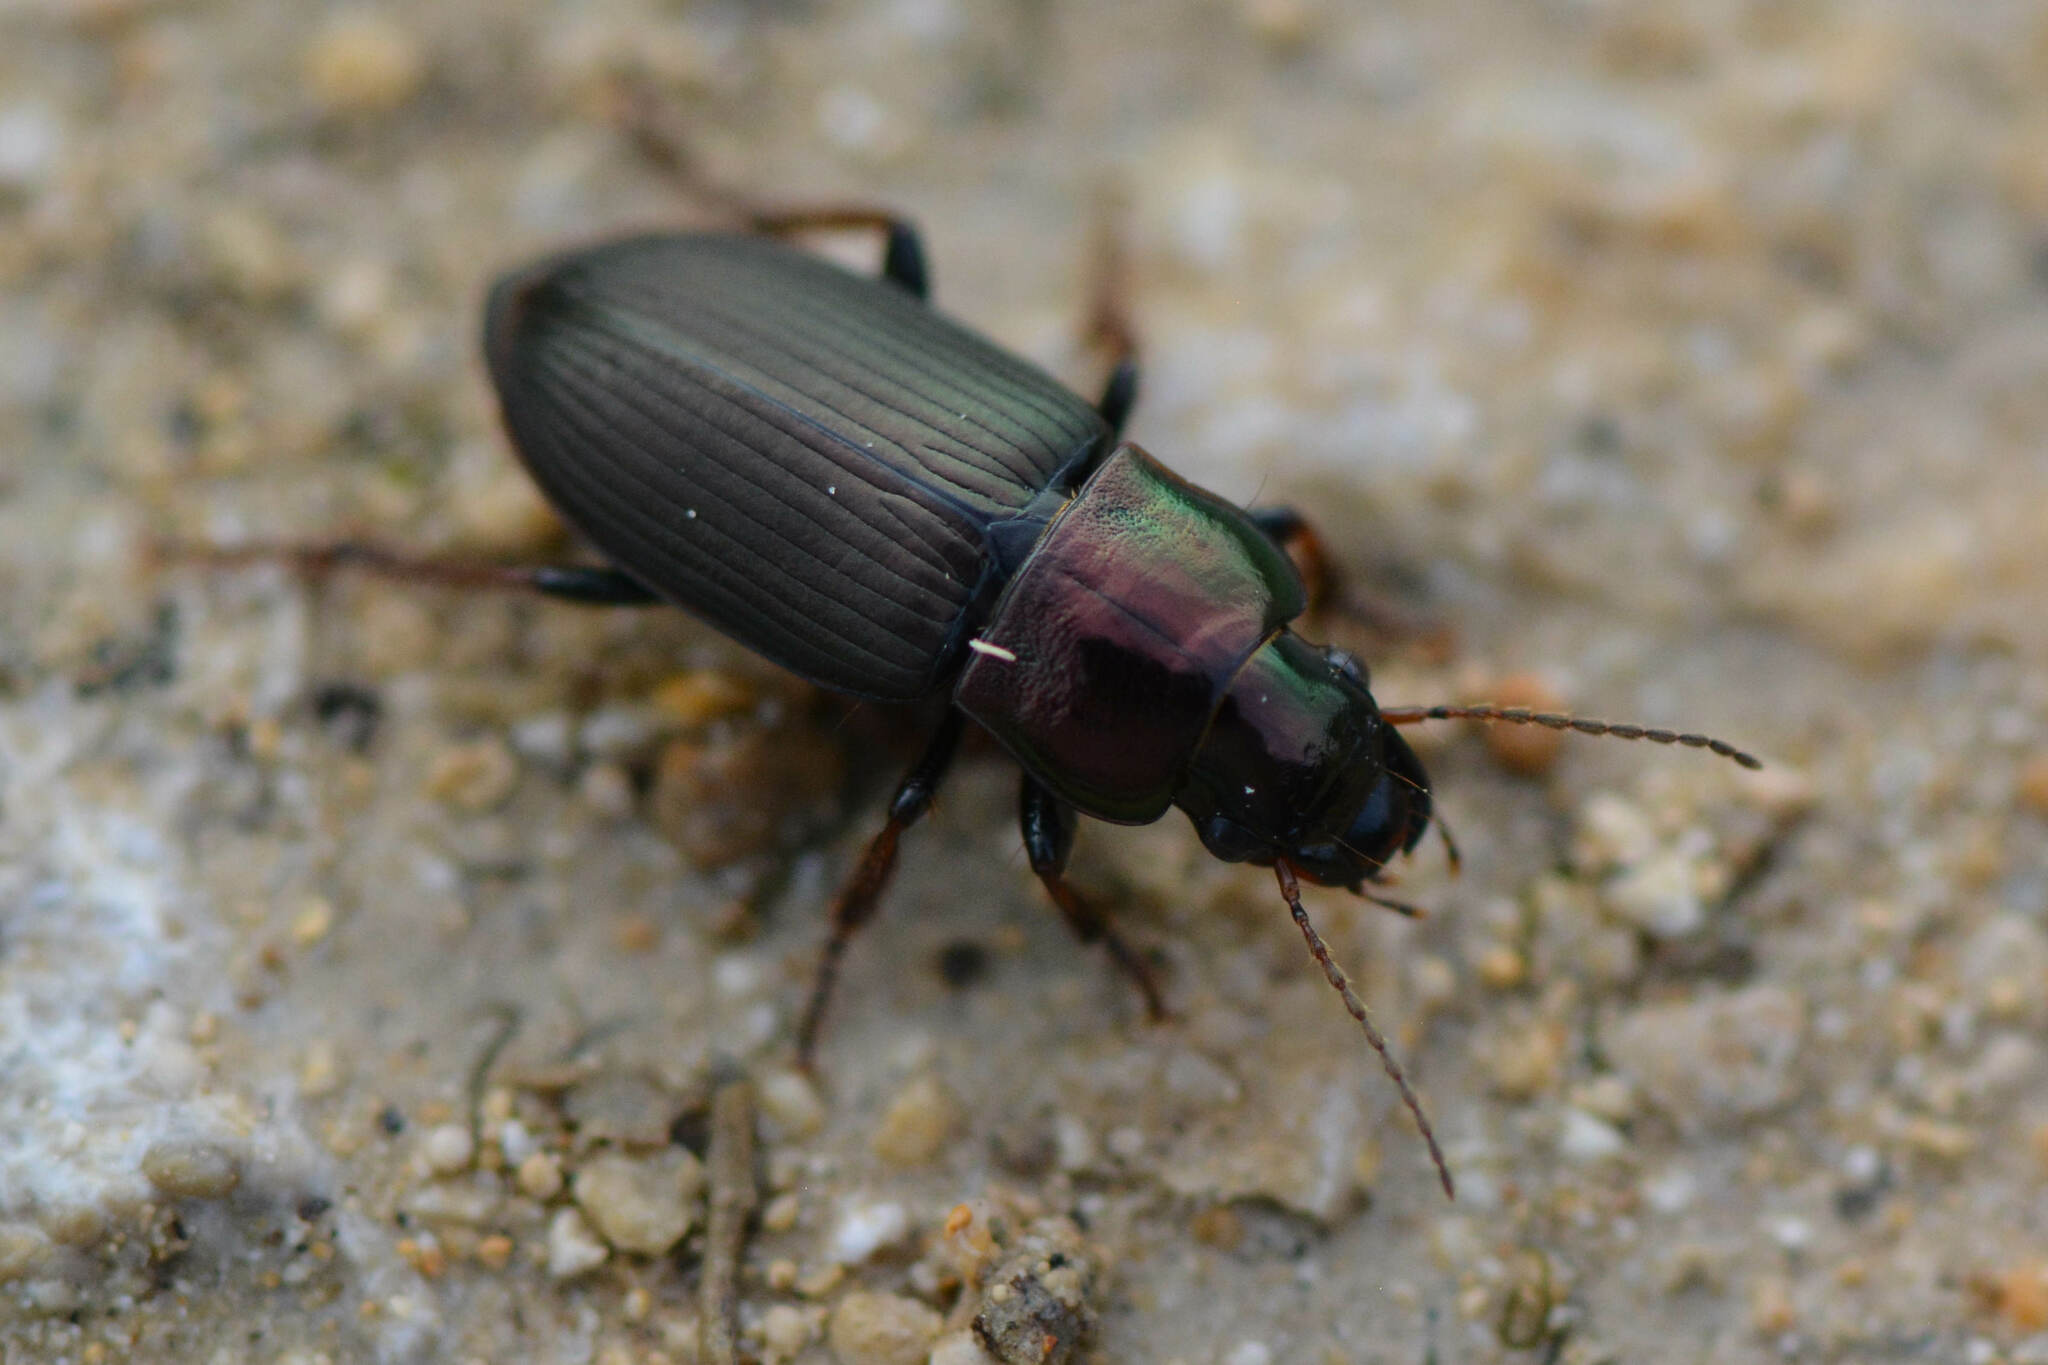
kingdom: Animalia
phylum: Arthropoda
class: Insecta
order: Coleoptera
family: Carabidae
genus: Harpalus
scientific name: Harpalus distinguendus
